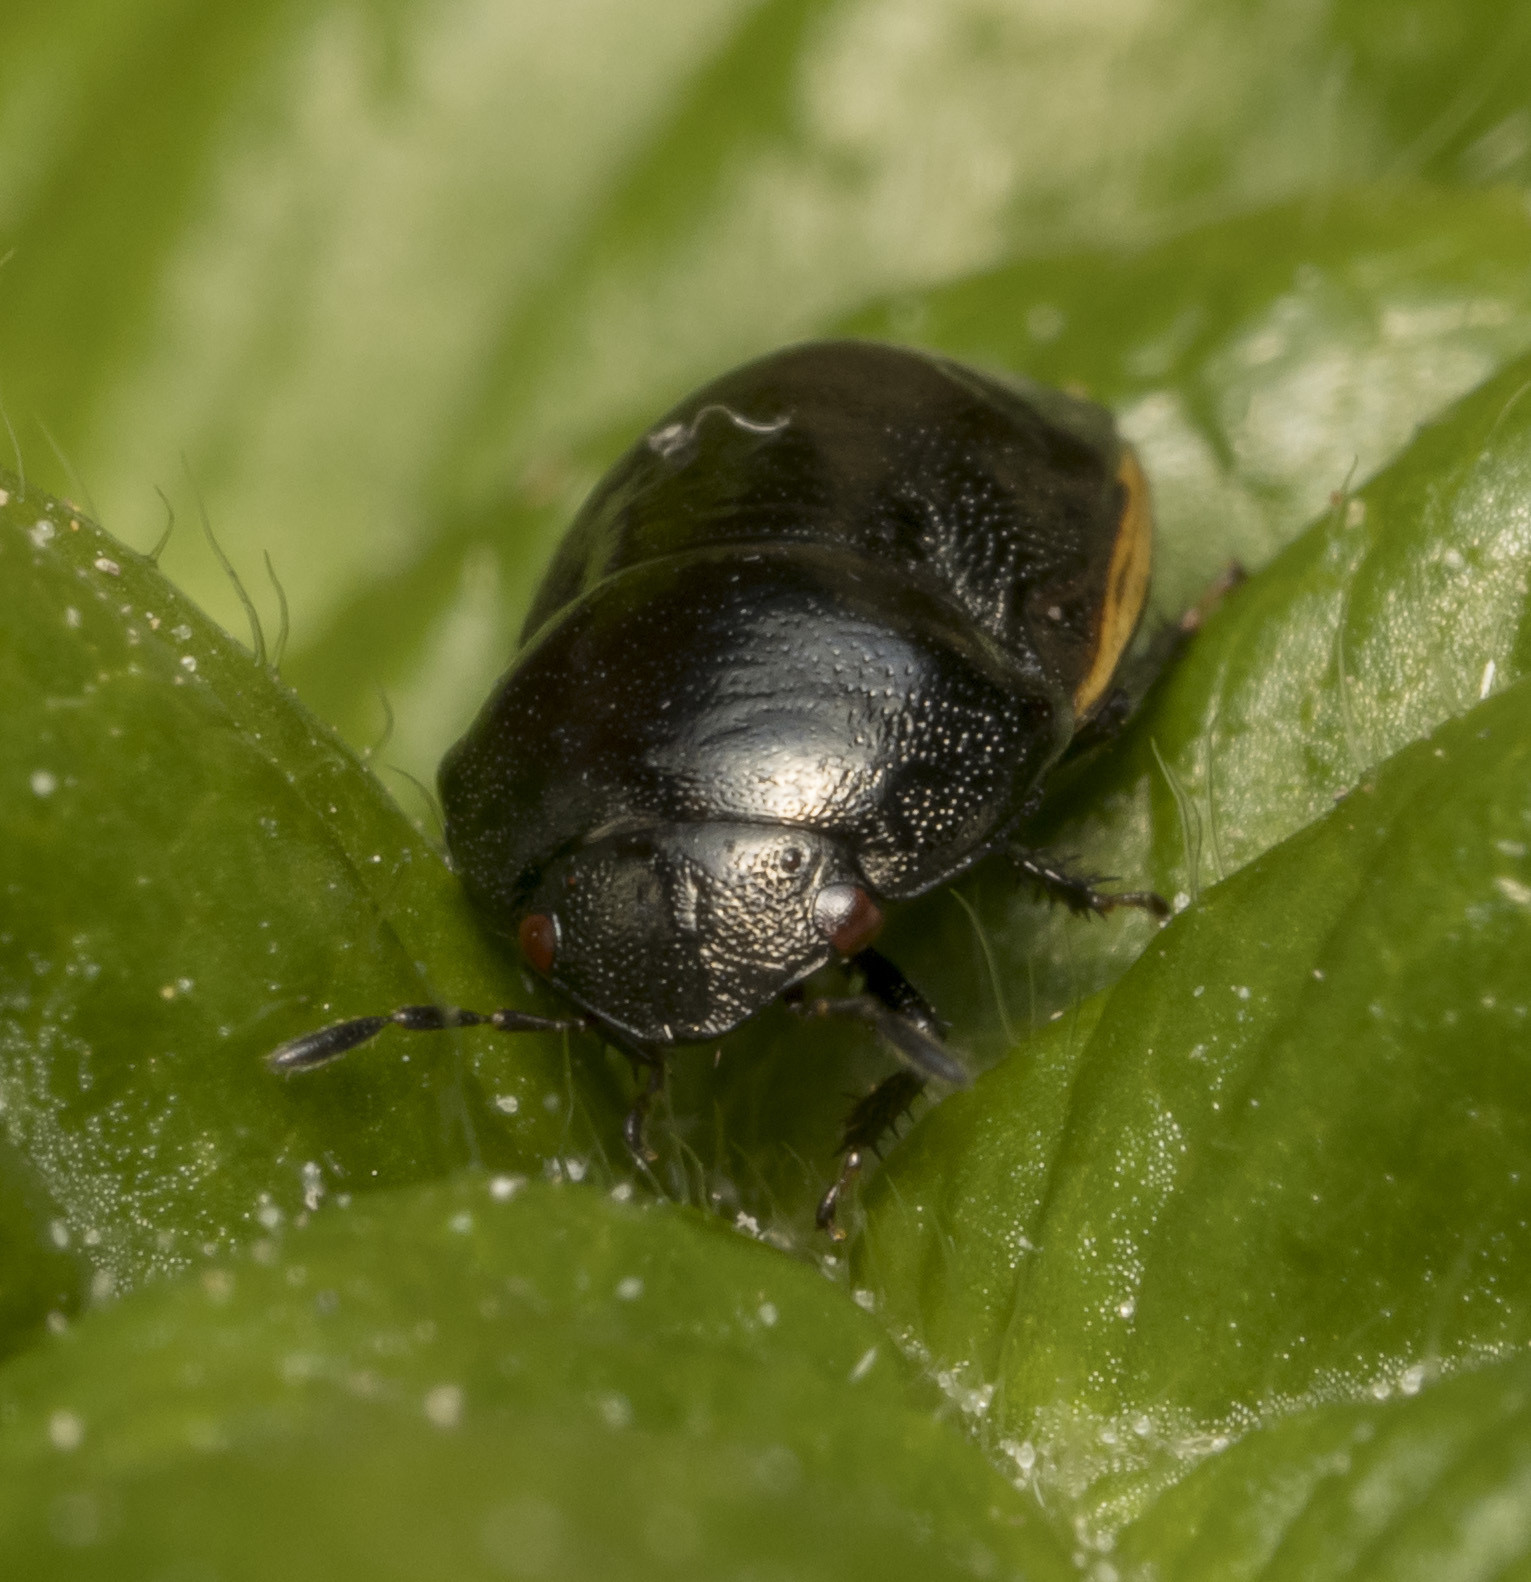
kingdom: Animalia
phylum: Arthropoda
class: Insecta
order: Hemiptera
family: Thyreocoridae
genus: Galgupha
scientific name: Galgupha albipennis
